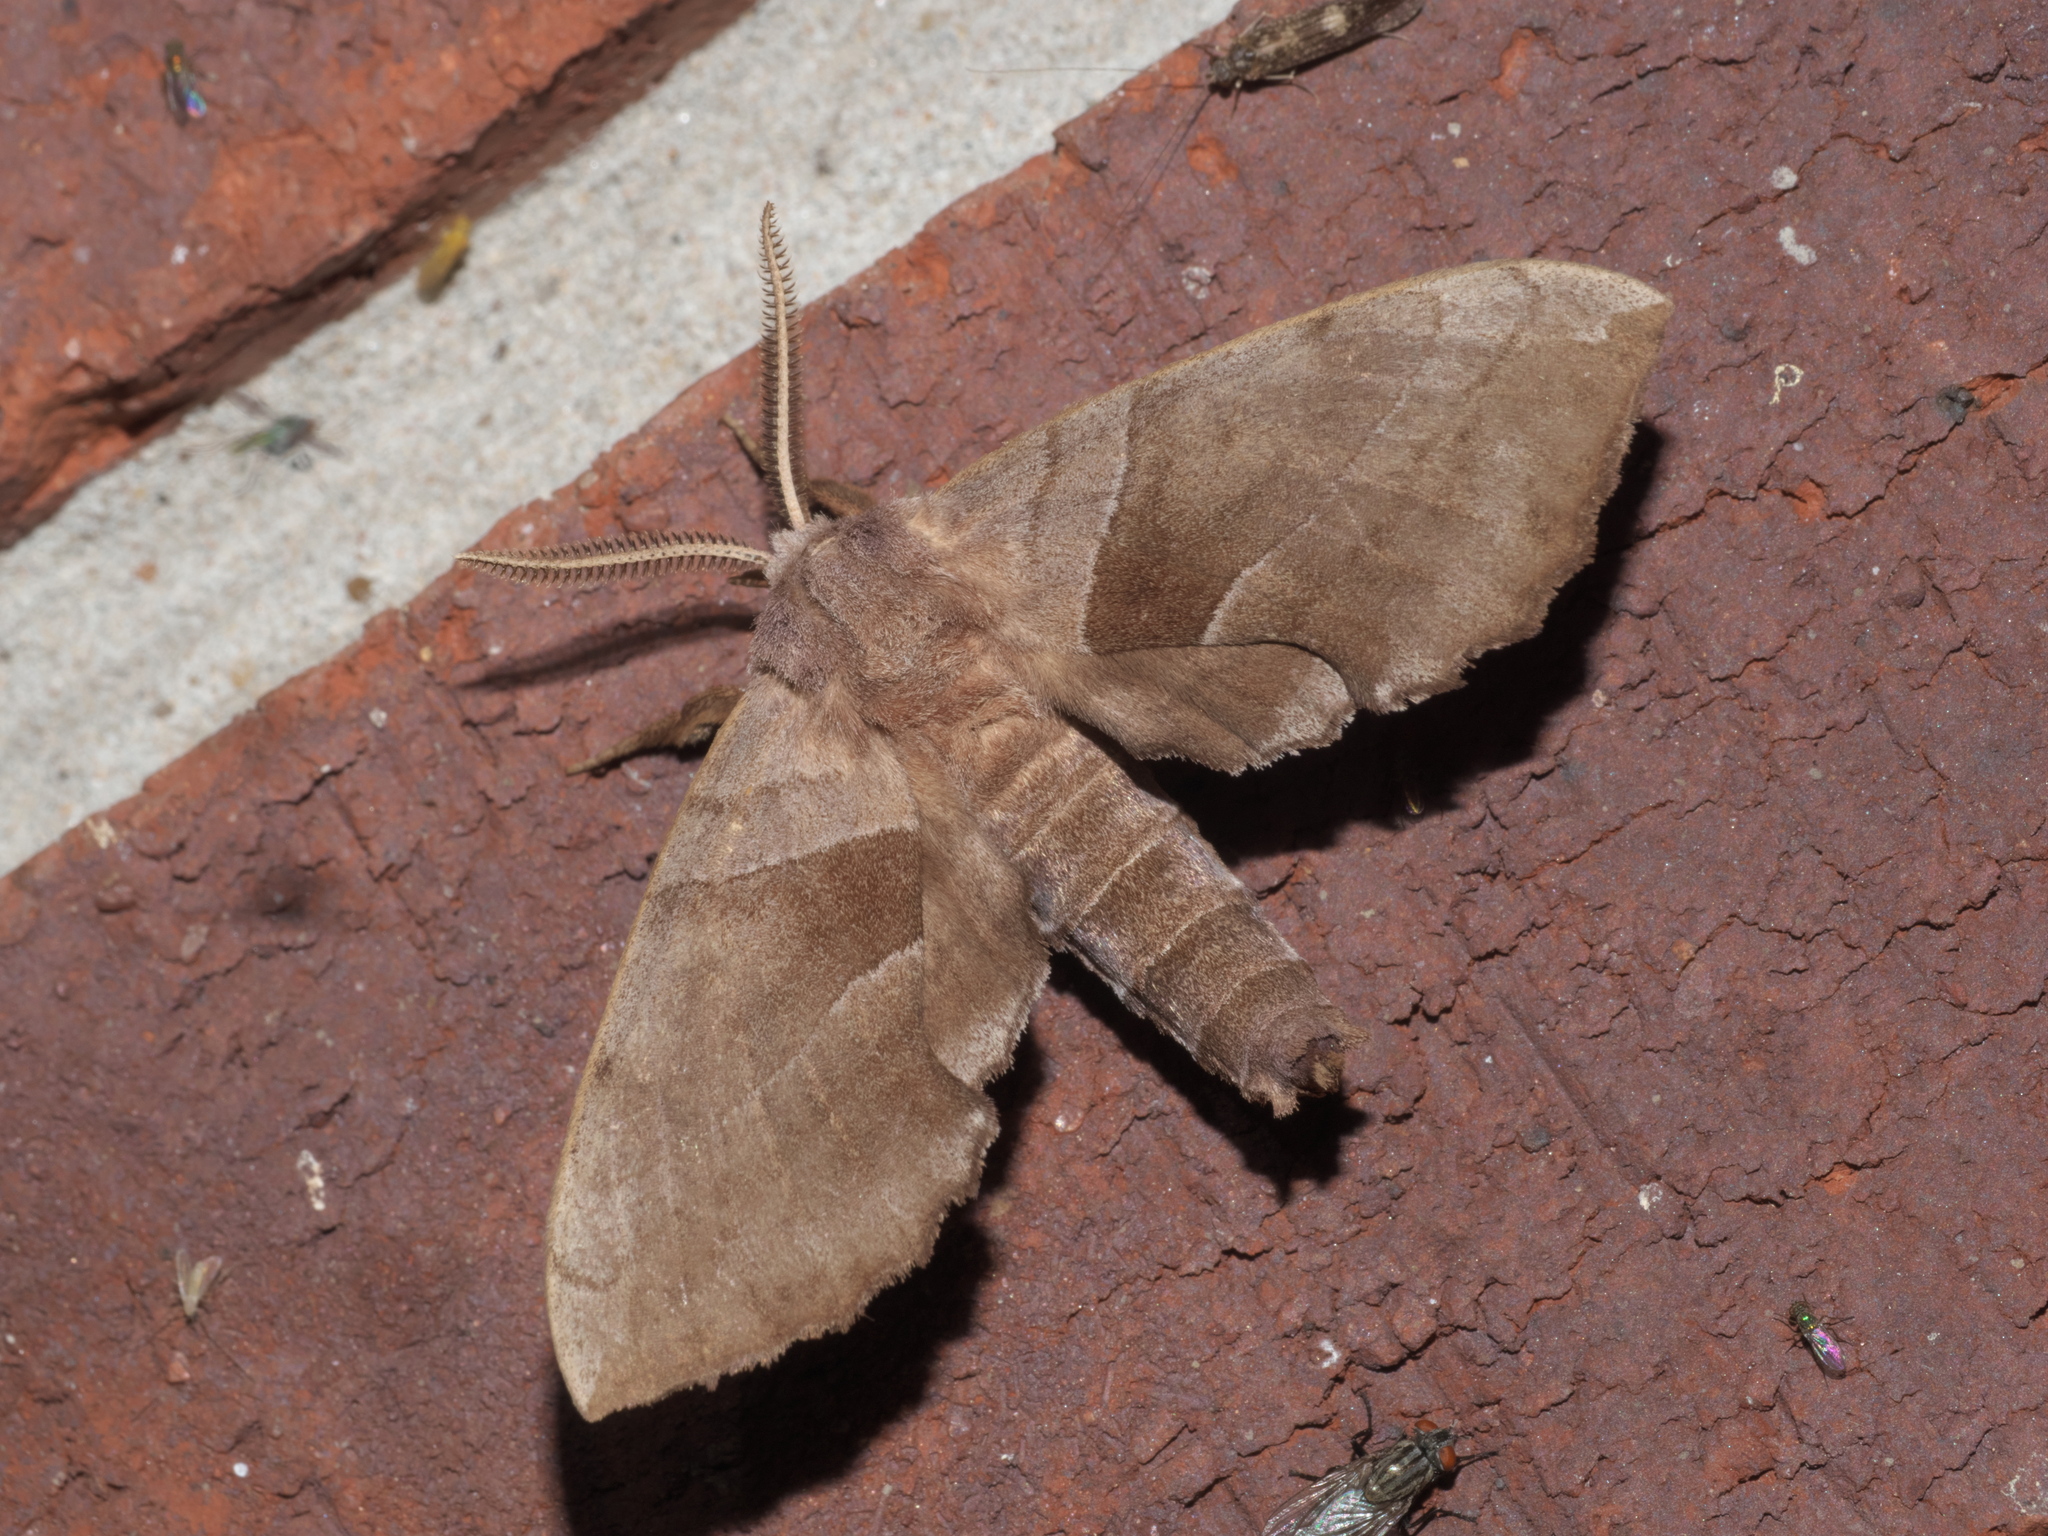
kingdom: Animalia
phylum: Arthropoda
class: Insecta
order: Lepidoptera
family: Sphingidae
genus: Amorpha
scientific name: Amorpha juglandis
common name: Walnut sphinx
